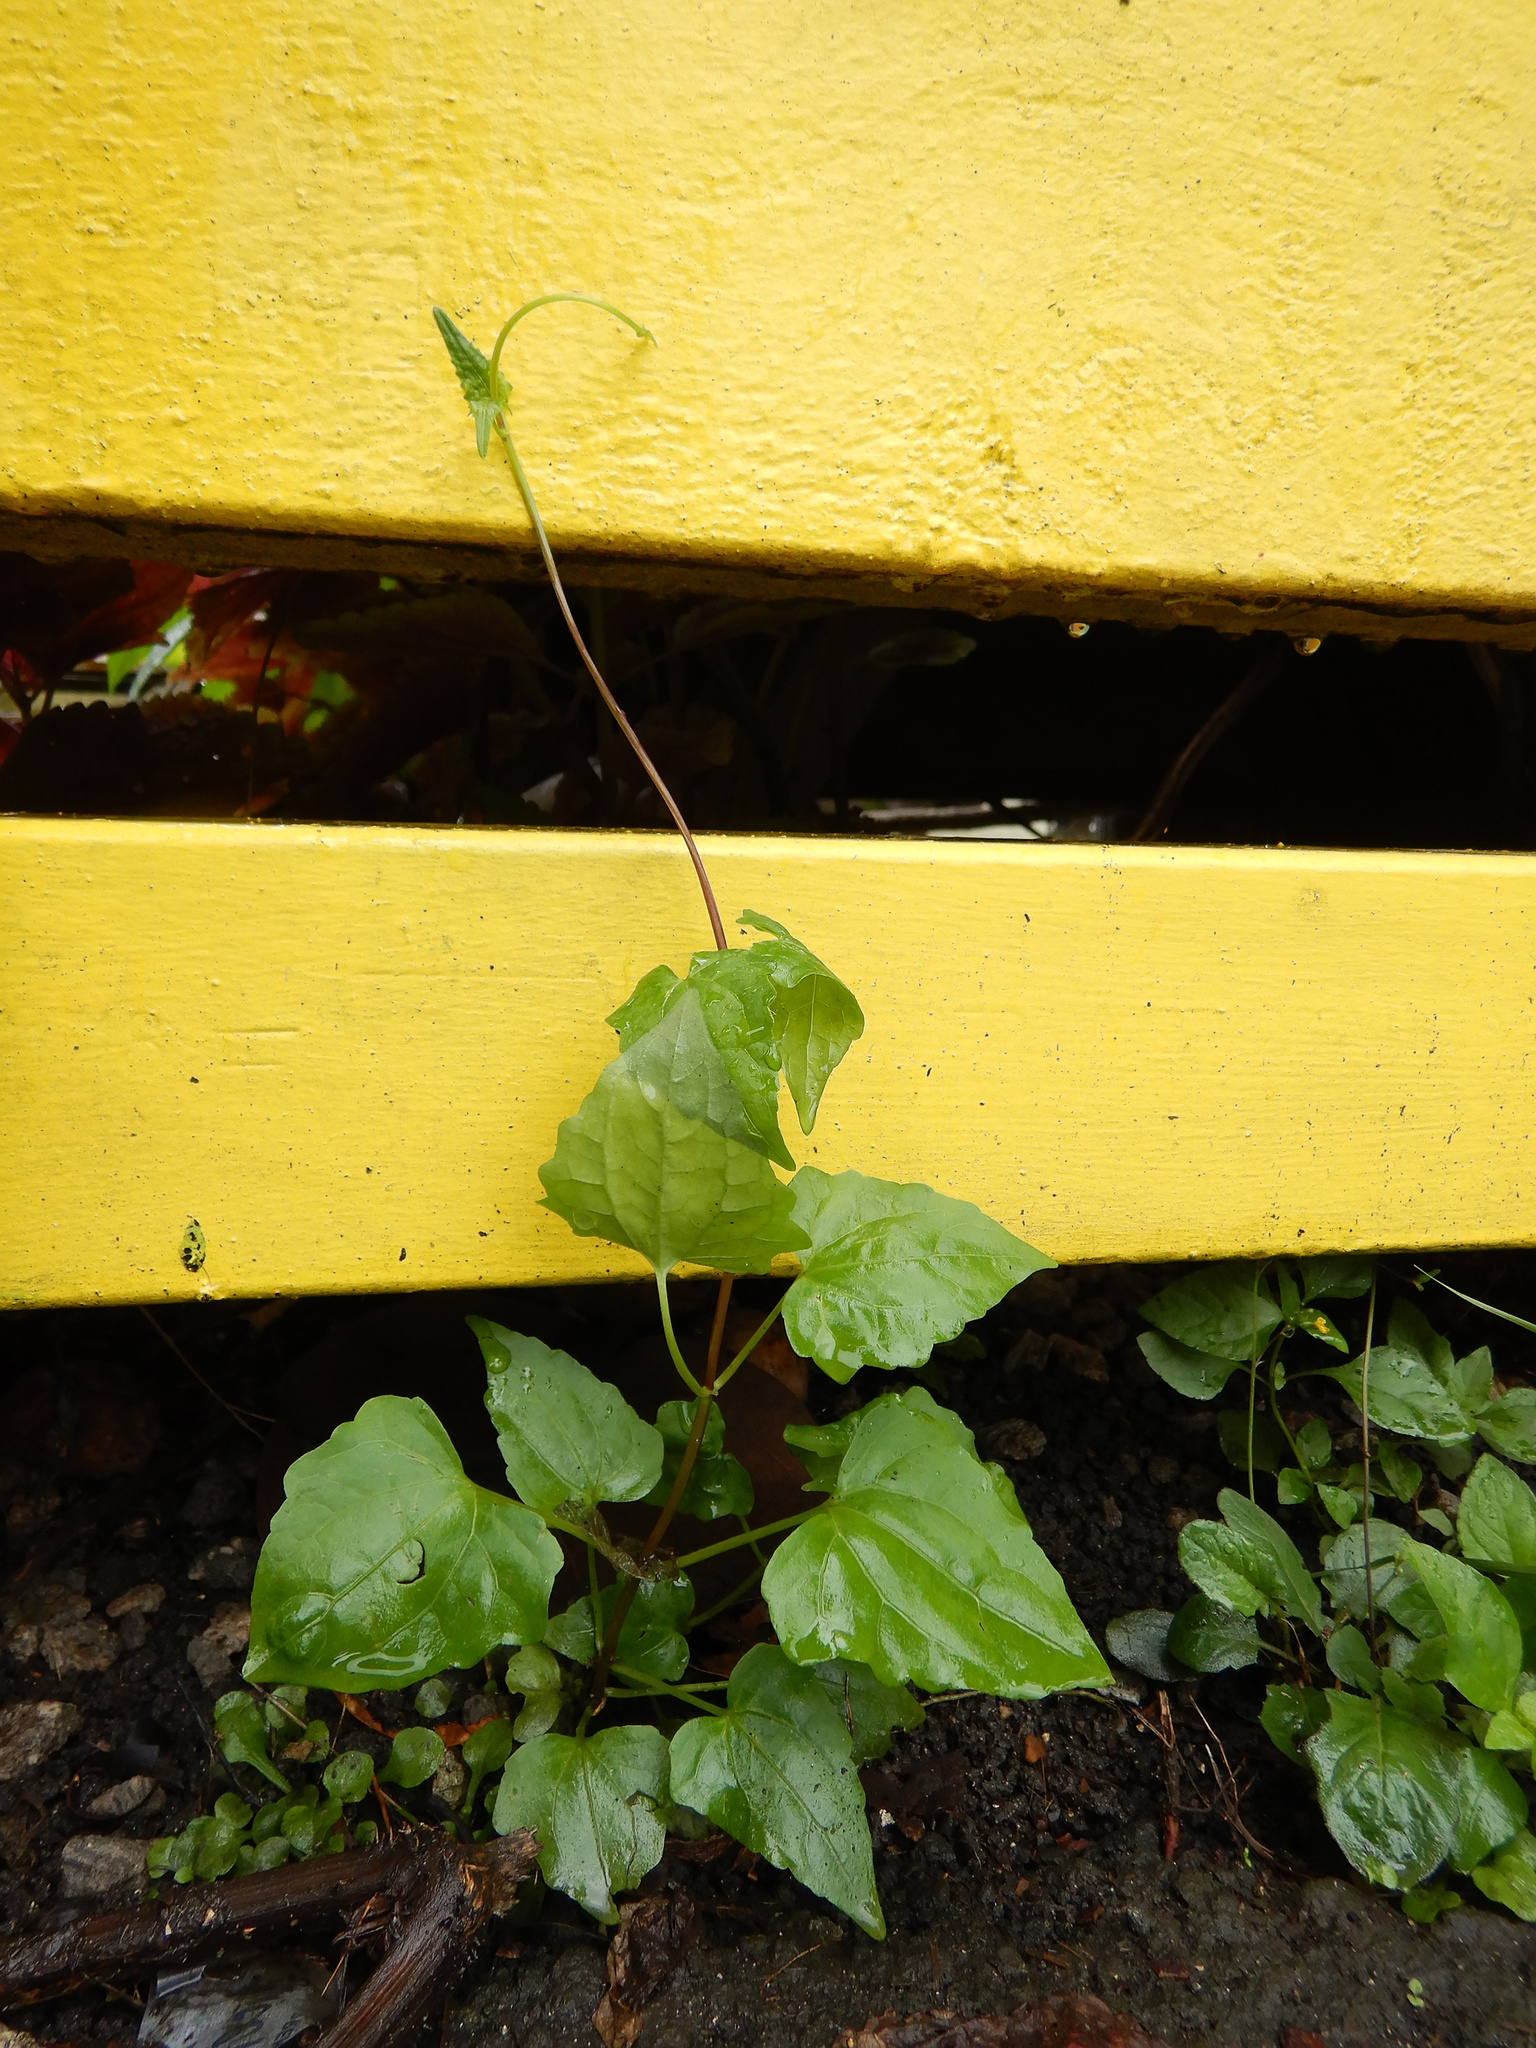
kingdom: Plantae
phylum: Tracheophyta
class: Magnoliopsida
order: Asterales
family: Asteraceae
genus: Mikania
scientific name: Mikania micrantha
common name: Mile-a-minute
